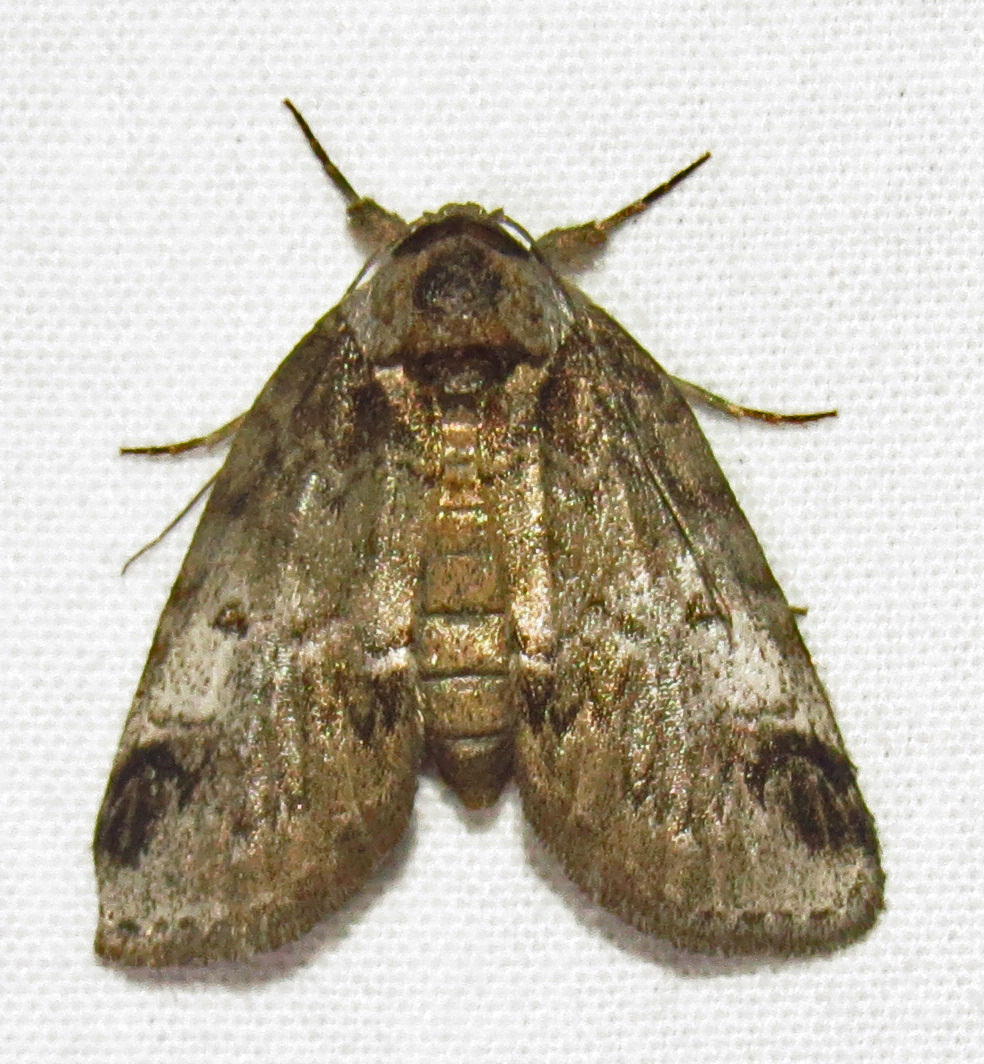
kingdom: Animalia
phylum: Arthropoda
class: Insecta
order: Lepidoptera
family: Nolidae
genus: Baileya
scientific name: Baileya dormitans
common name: Sleeping baileya moth
